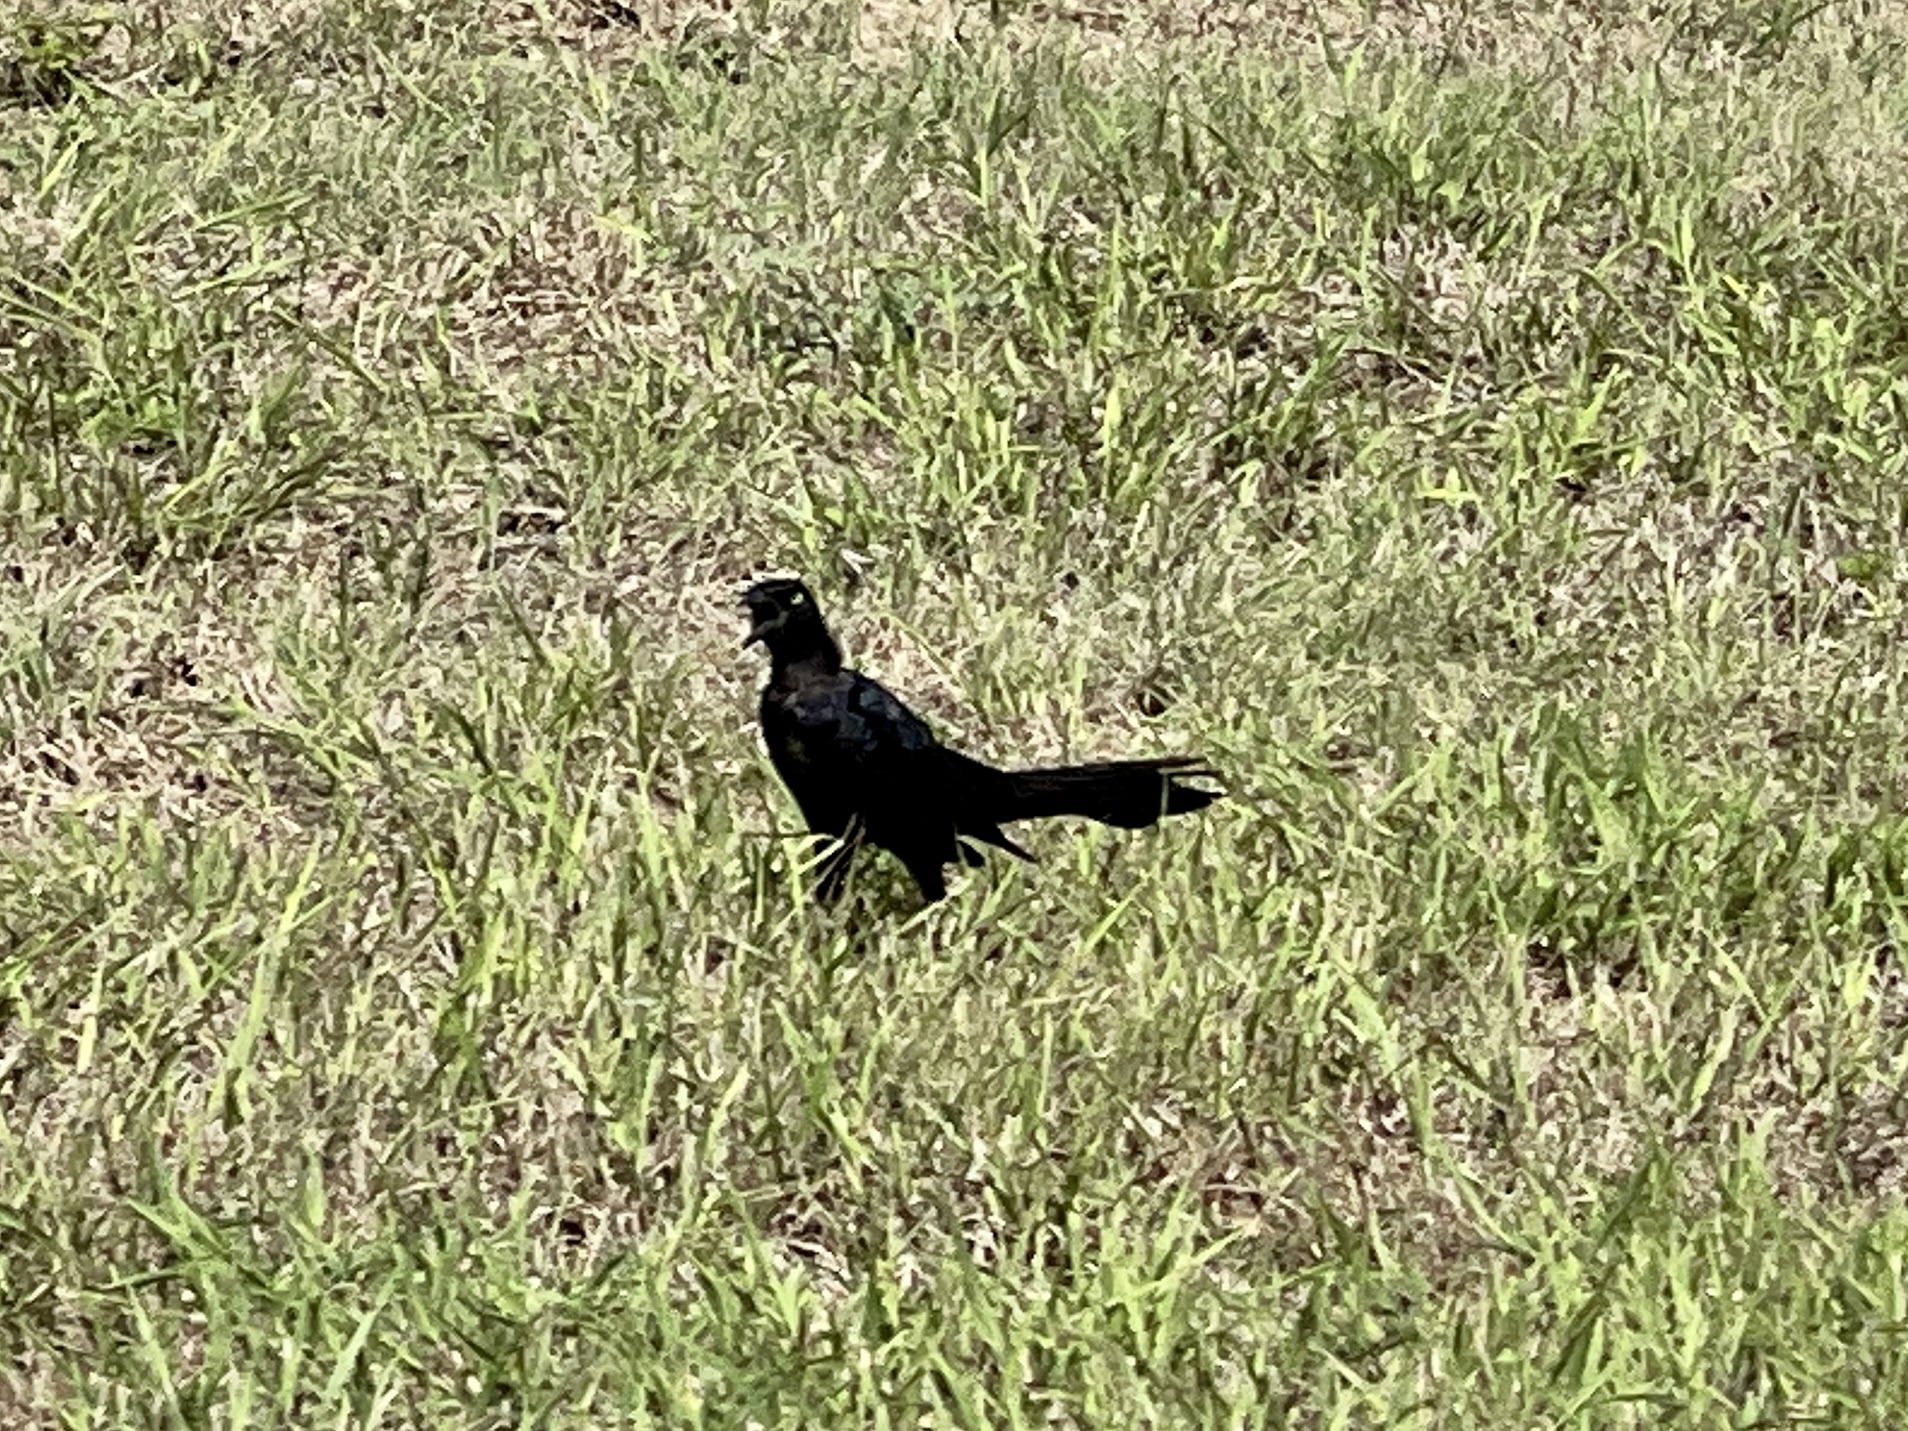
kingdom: Animalia
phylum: Chordata
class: Aves
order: Passeriformes
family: Icteridae
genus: Quiscalus
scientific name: Quiscalus mexicanus
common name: Great-tailed grackle
